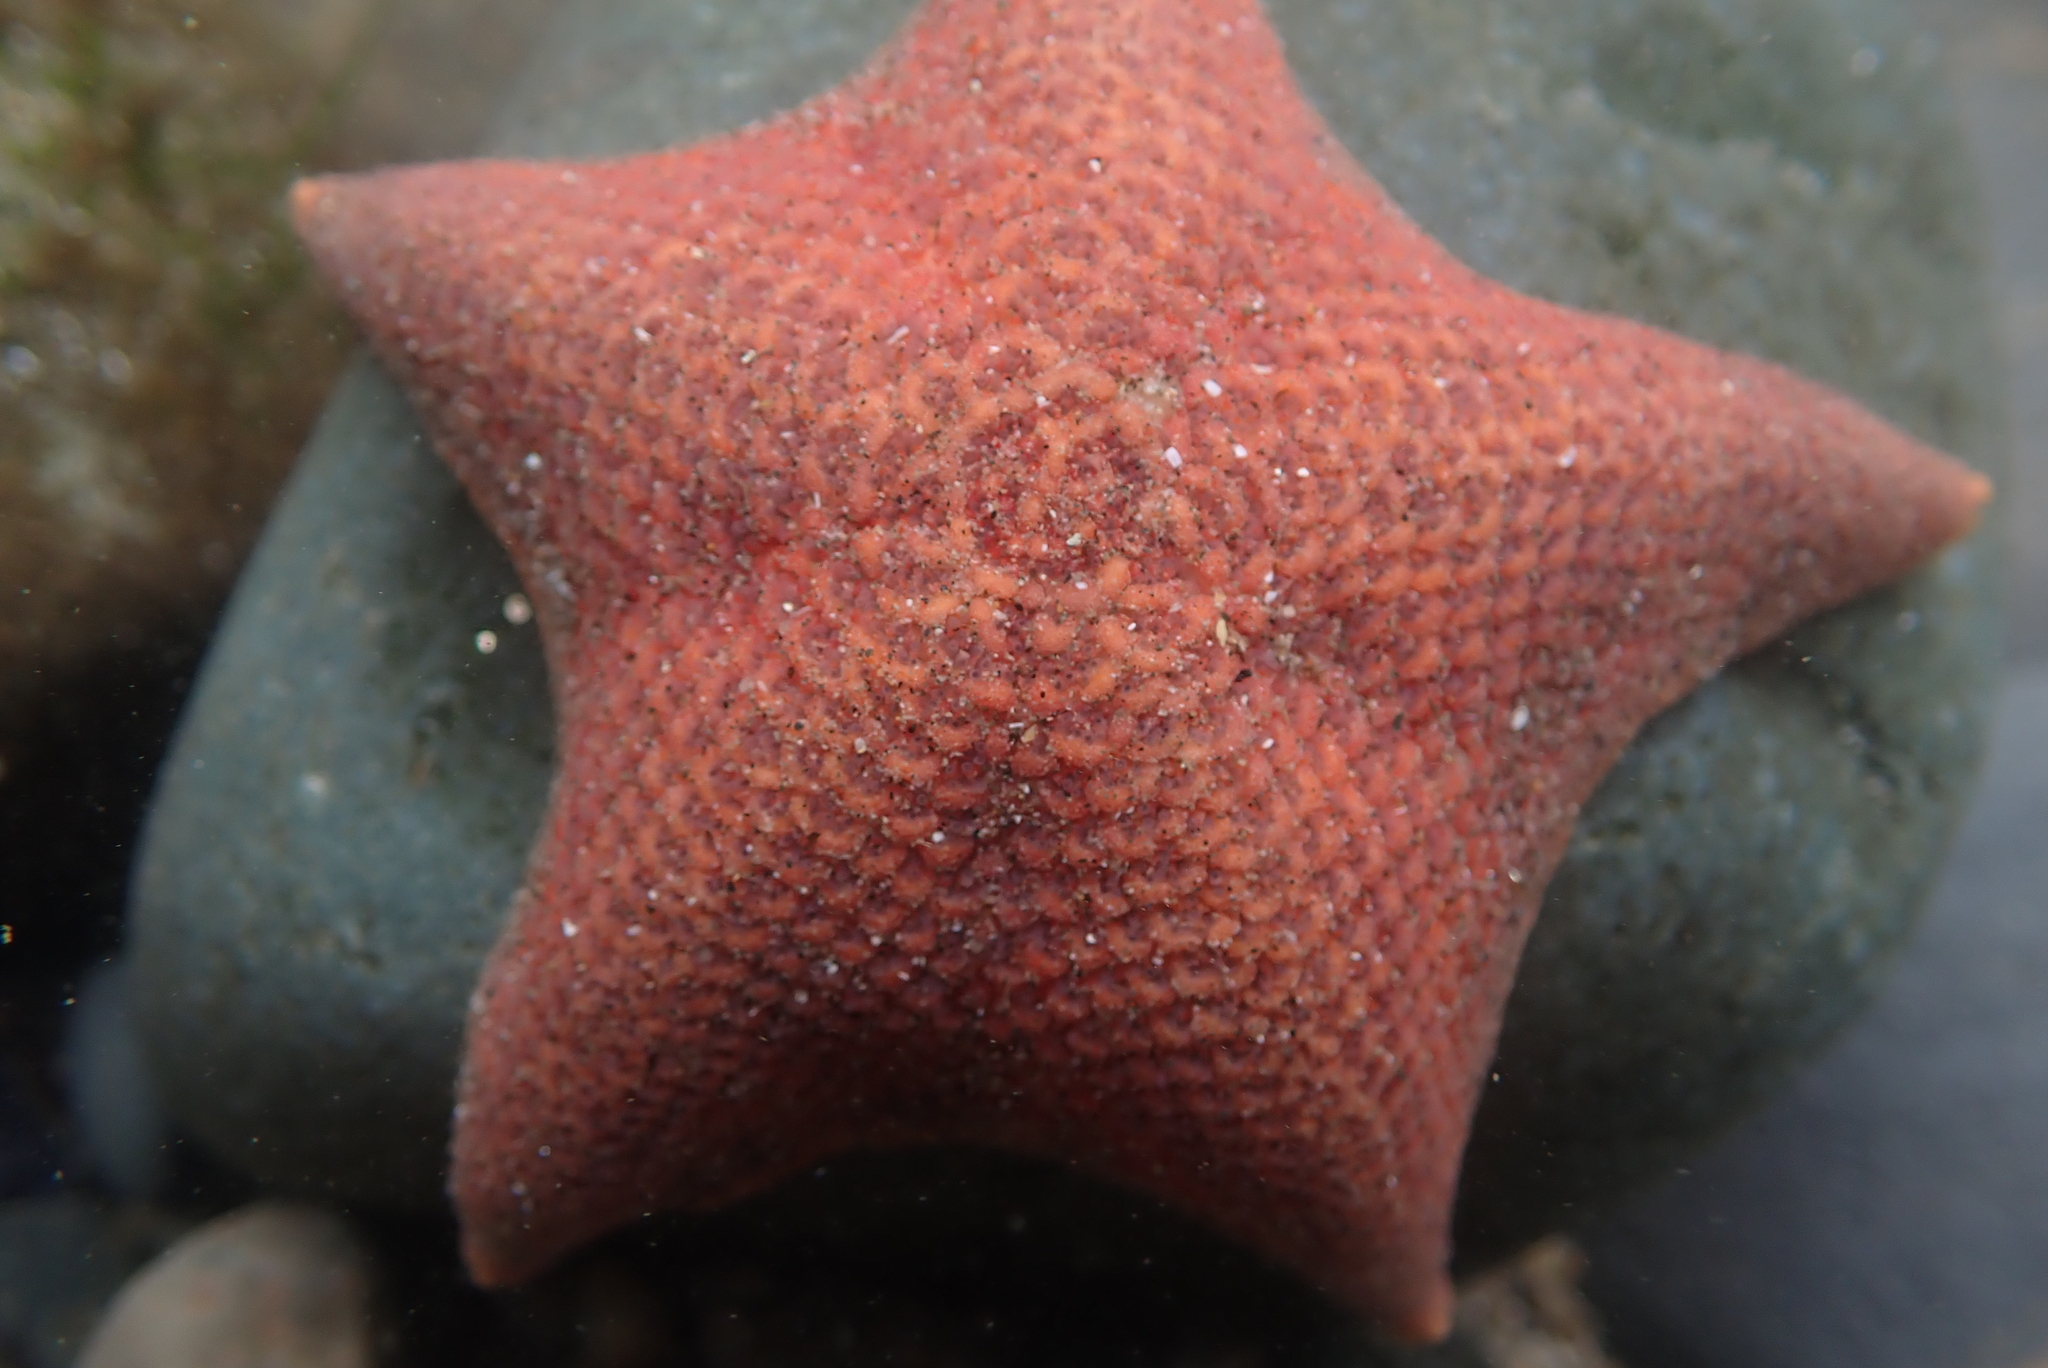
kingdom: Animalia
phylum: Echinodermata
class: Asteroidea
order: Valvatida
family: Asterinidae
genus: Patiria
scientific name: Patiria miniata
